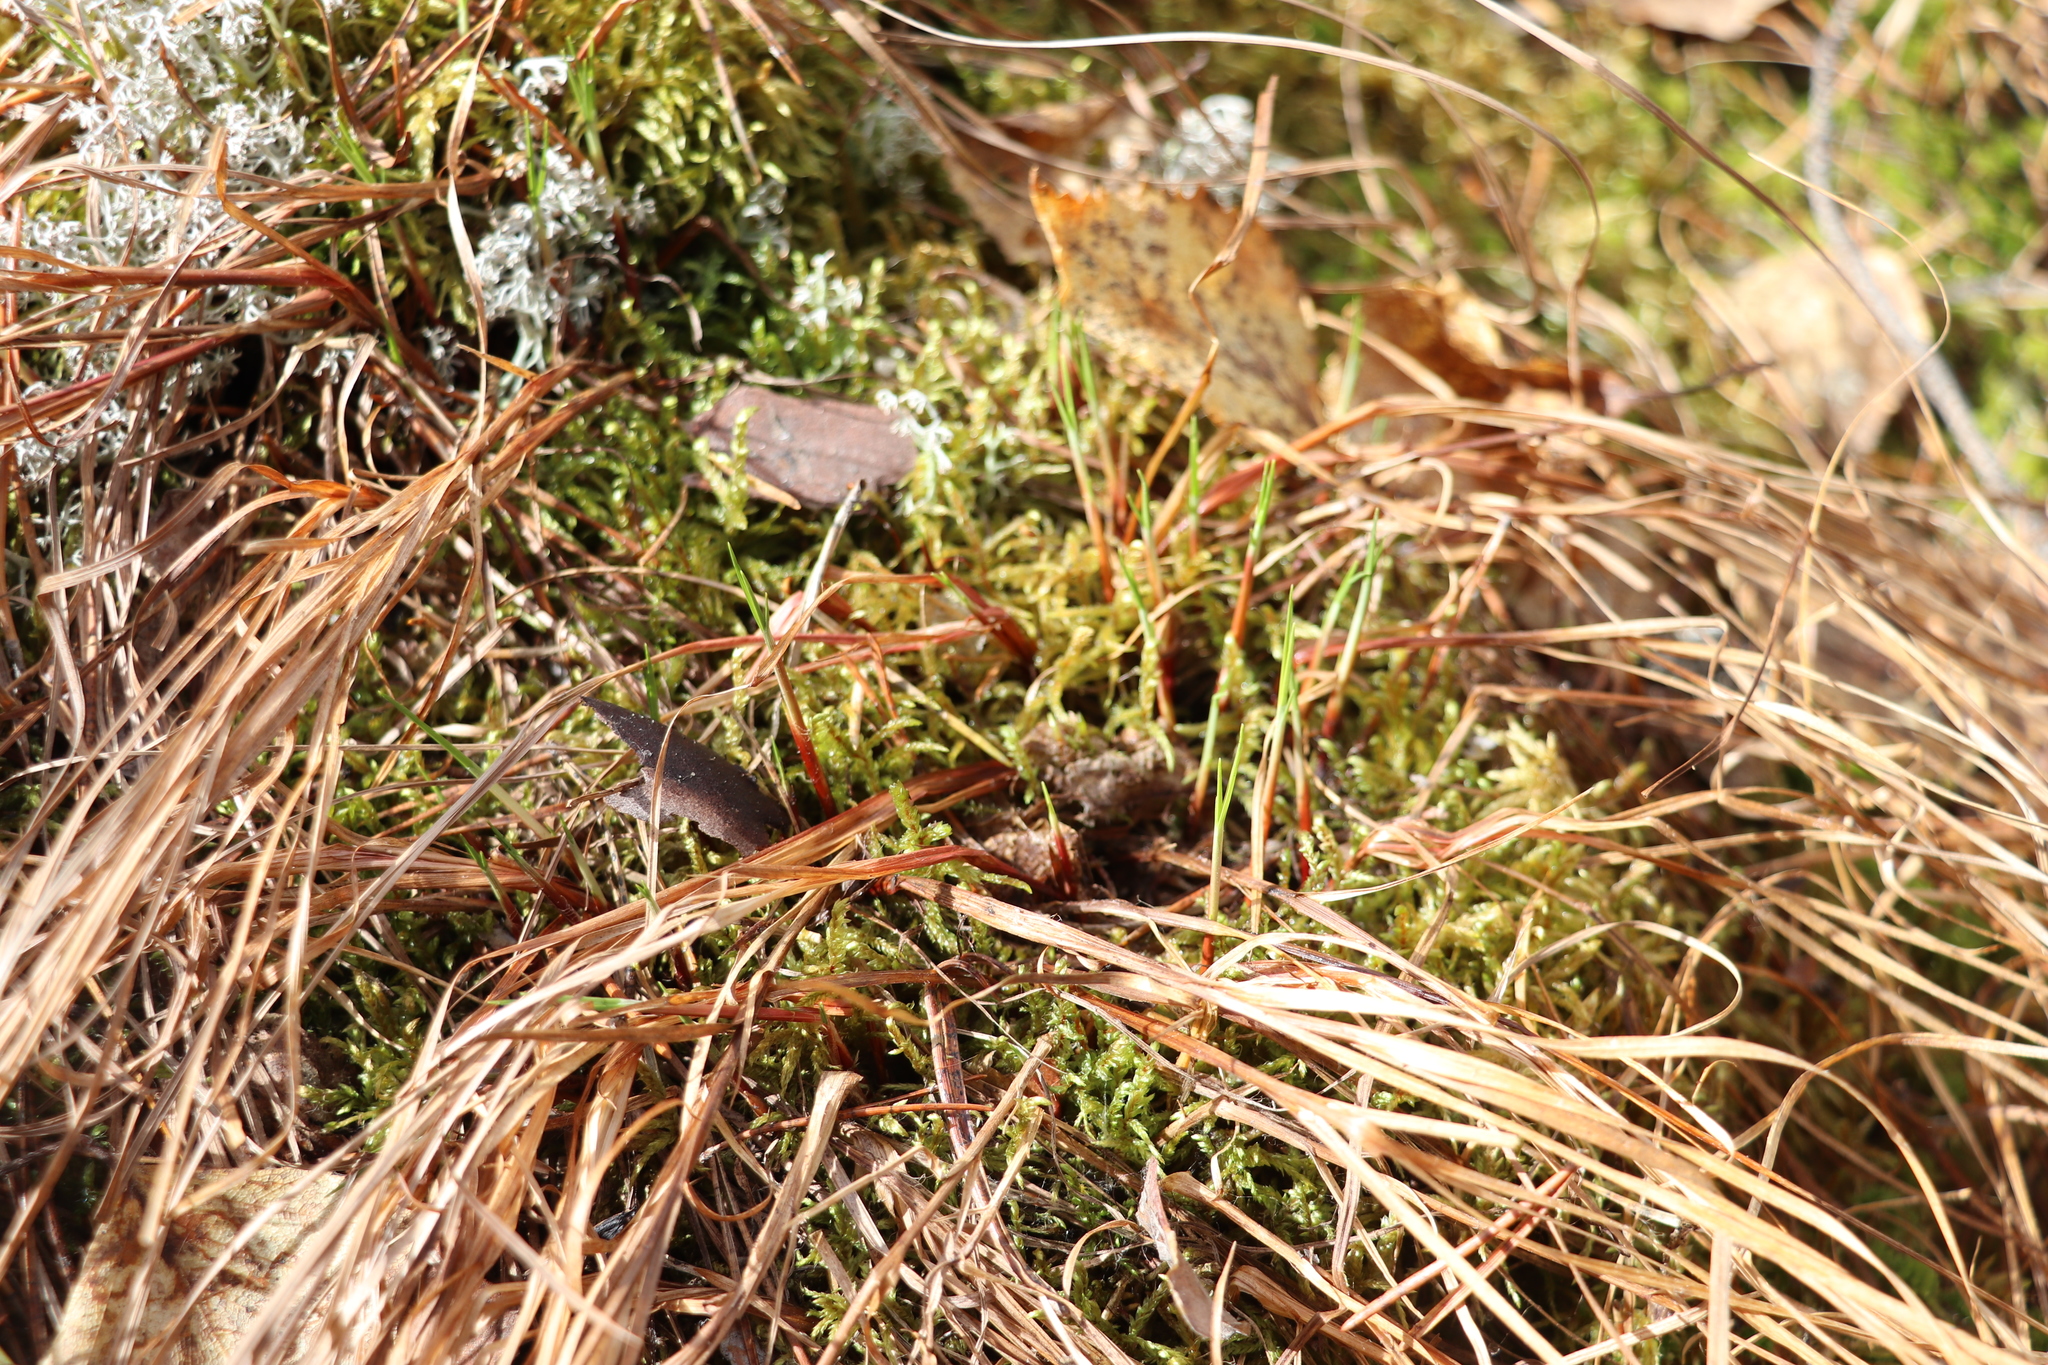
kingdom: Plantae
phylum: Tracheophyta
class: Liliopsida
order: Poales
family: Cyperaceae
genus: Carex
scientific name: Carex globularis
